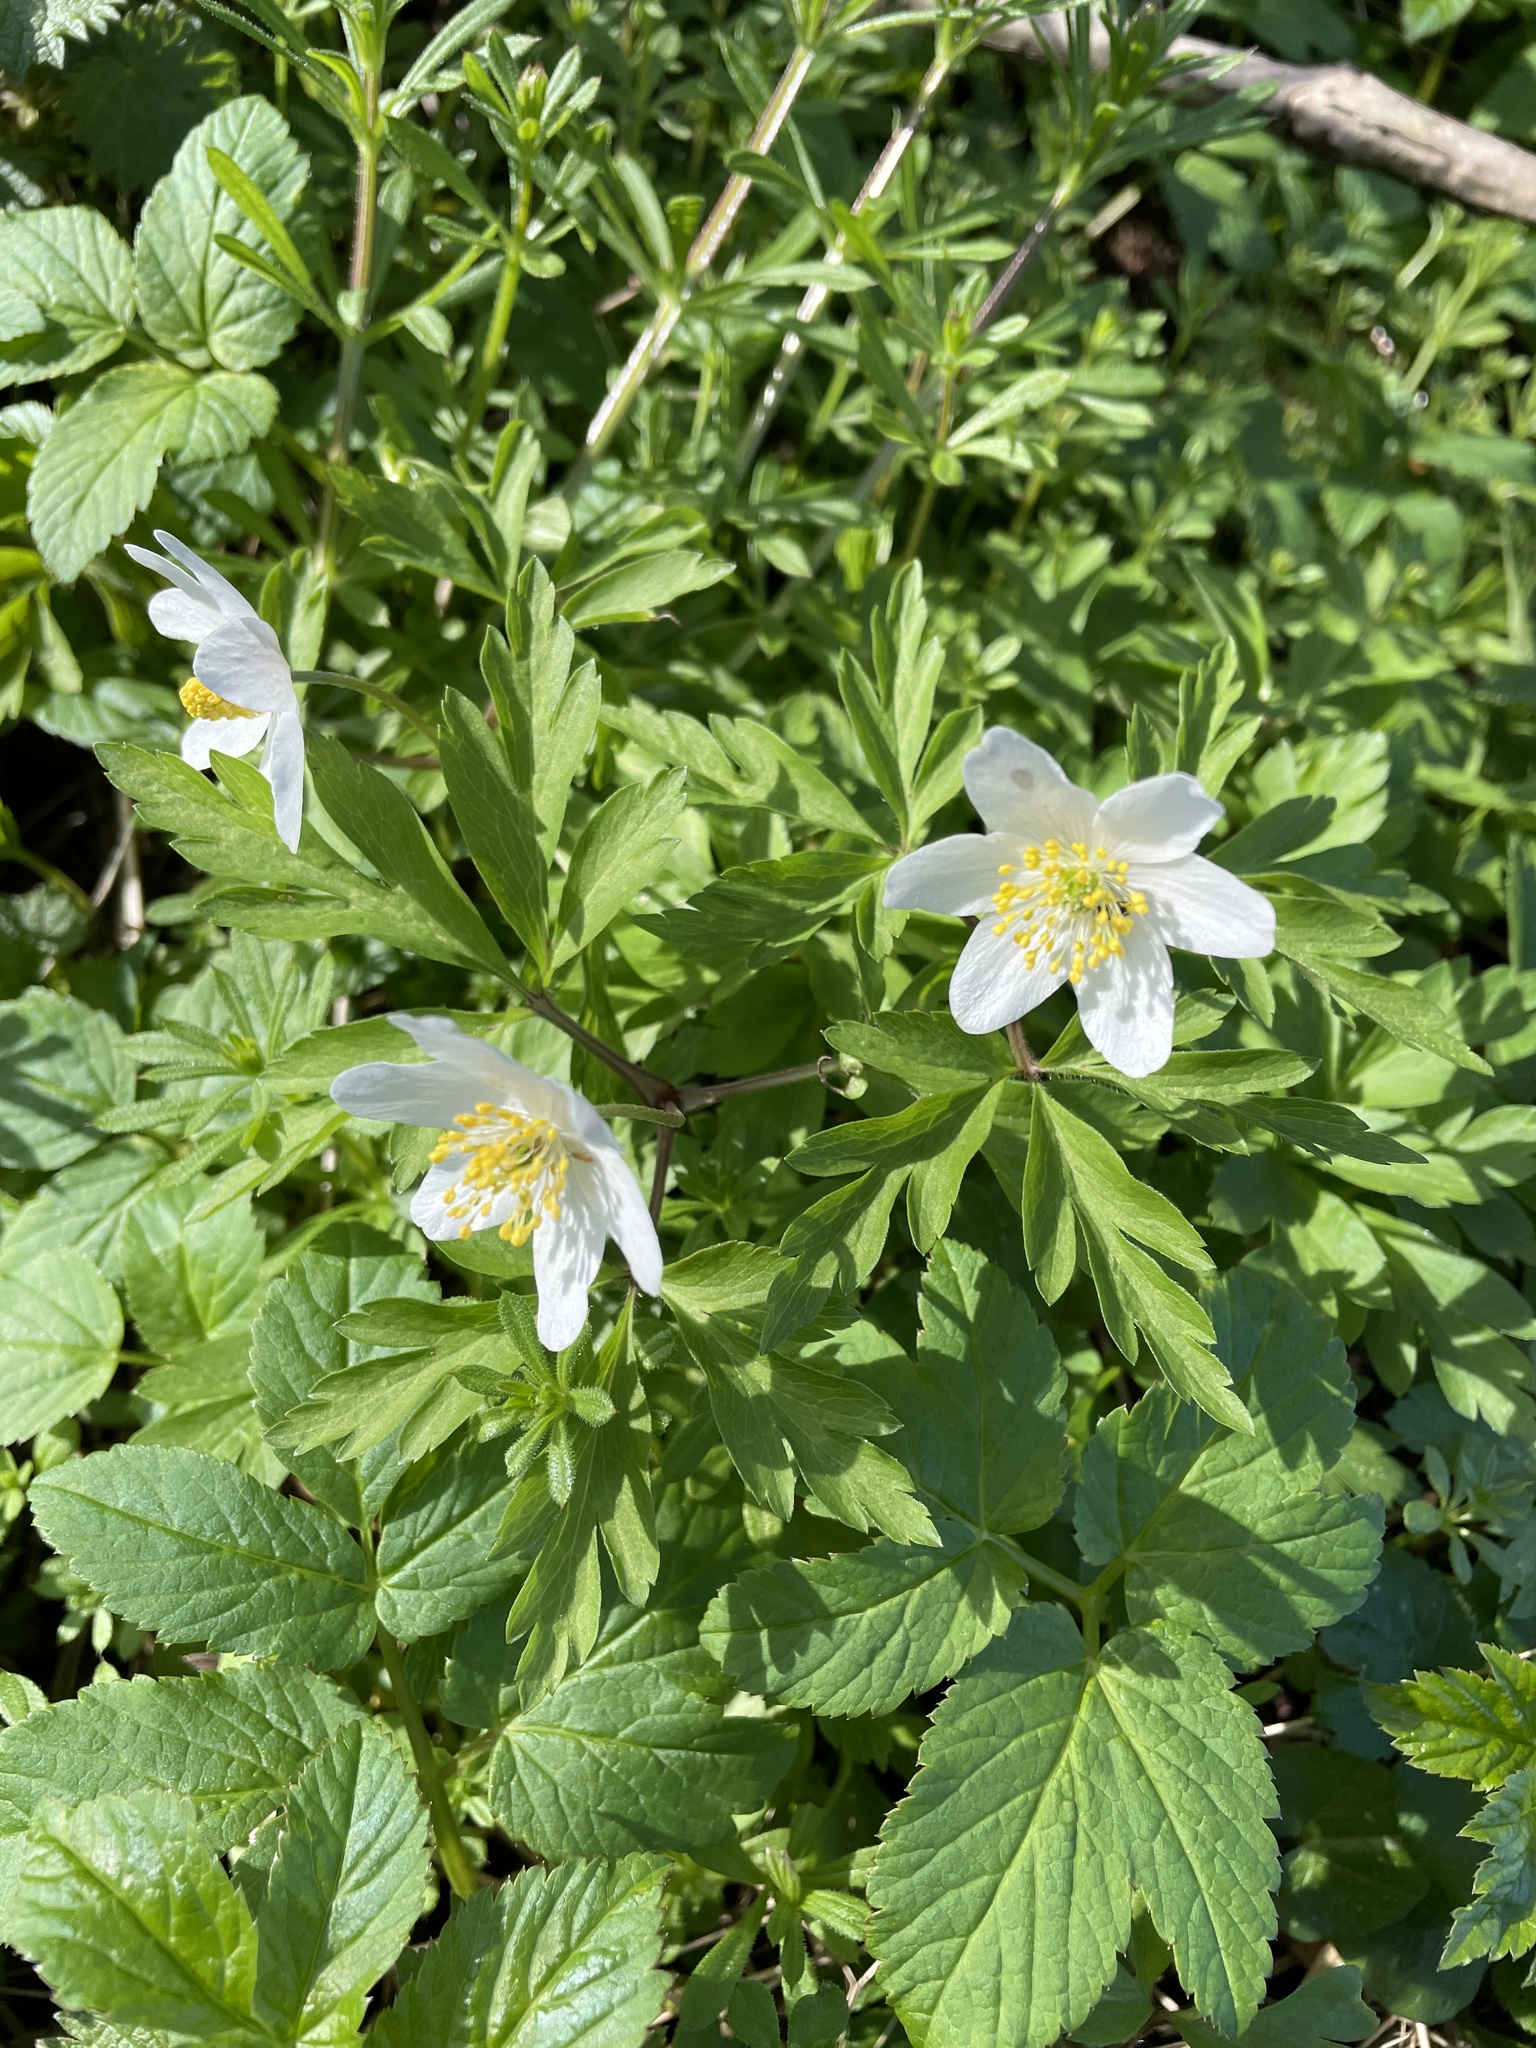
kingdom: Plantae
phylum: Tracheophyta
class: Magnoliopsida
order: Ranunculales
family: Ranunculaceae
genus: Anemone
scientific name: Anemone nemorosa
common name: Wood anemone
